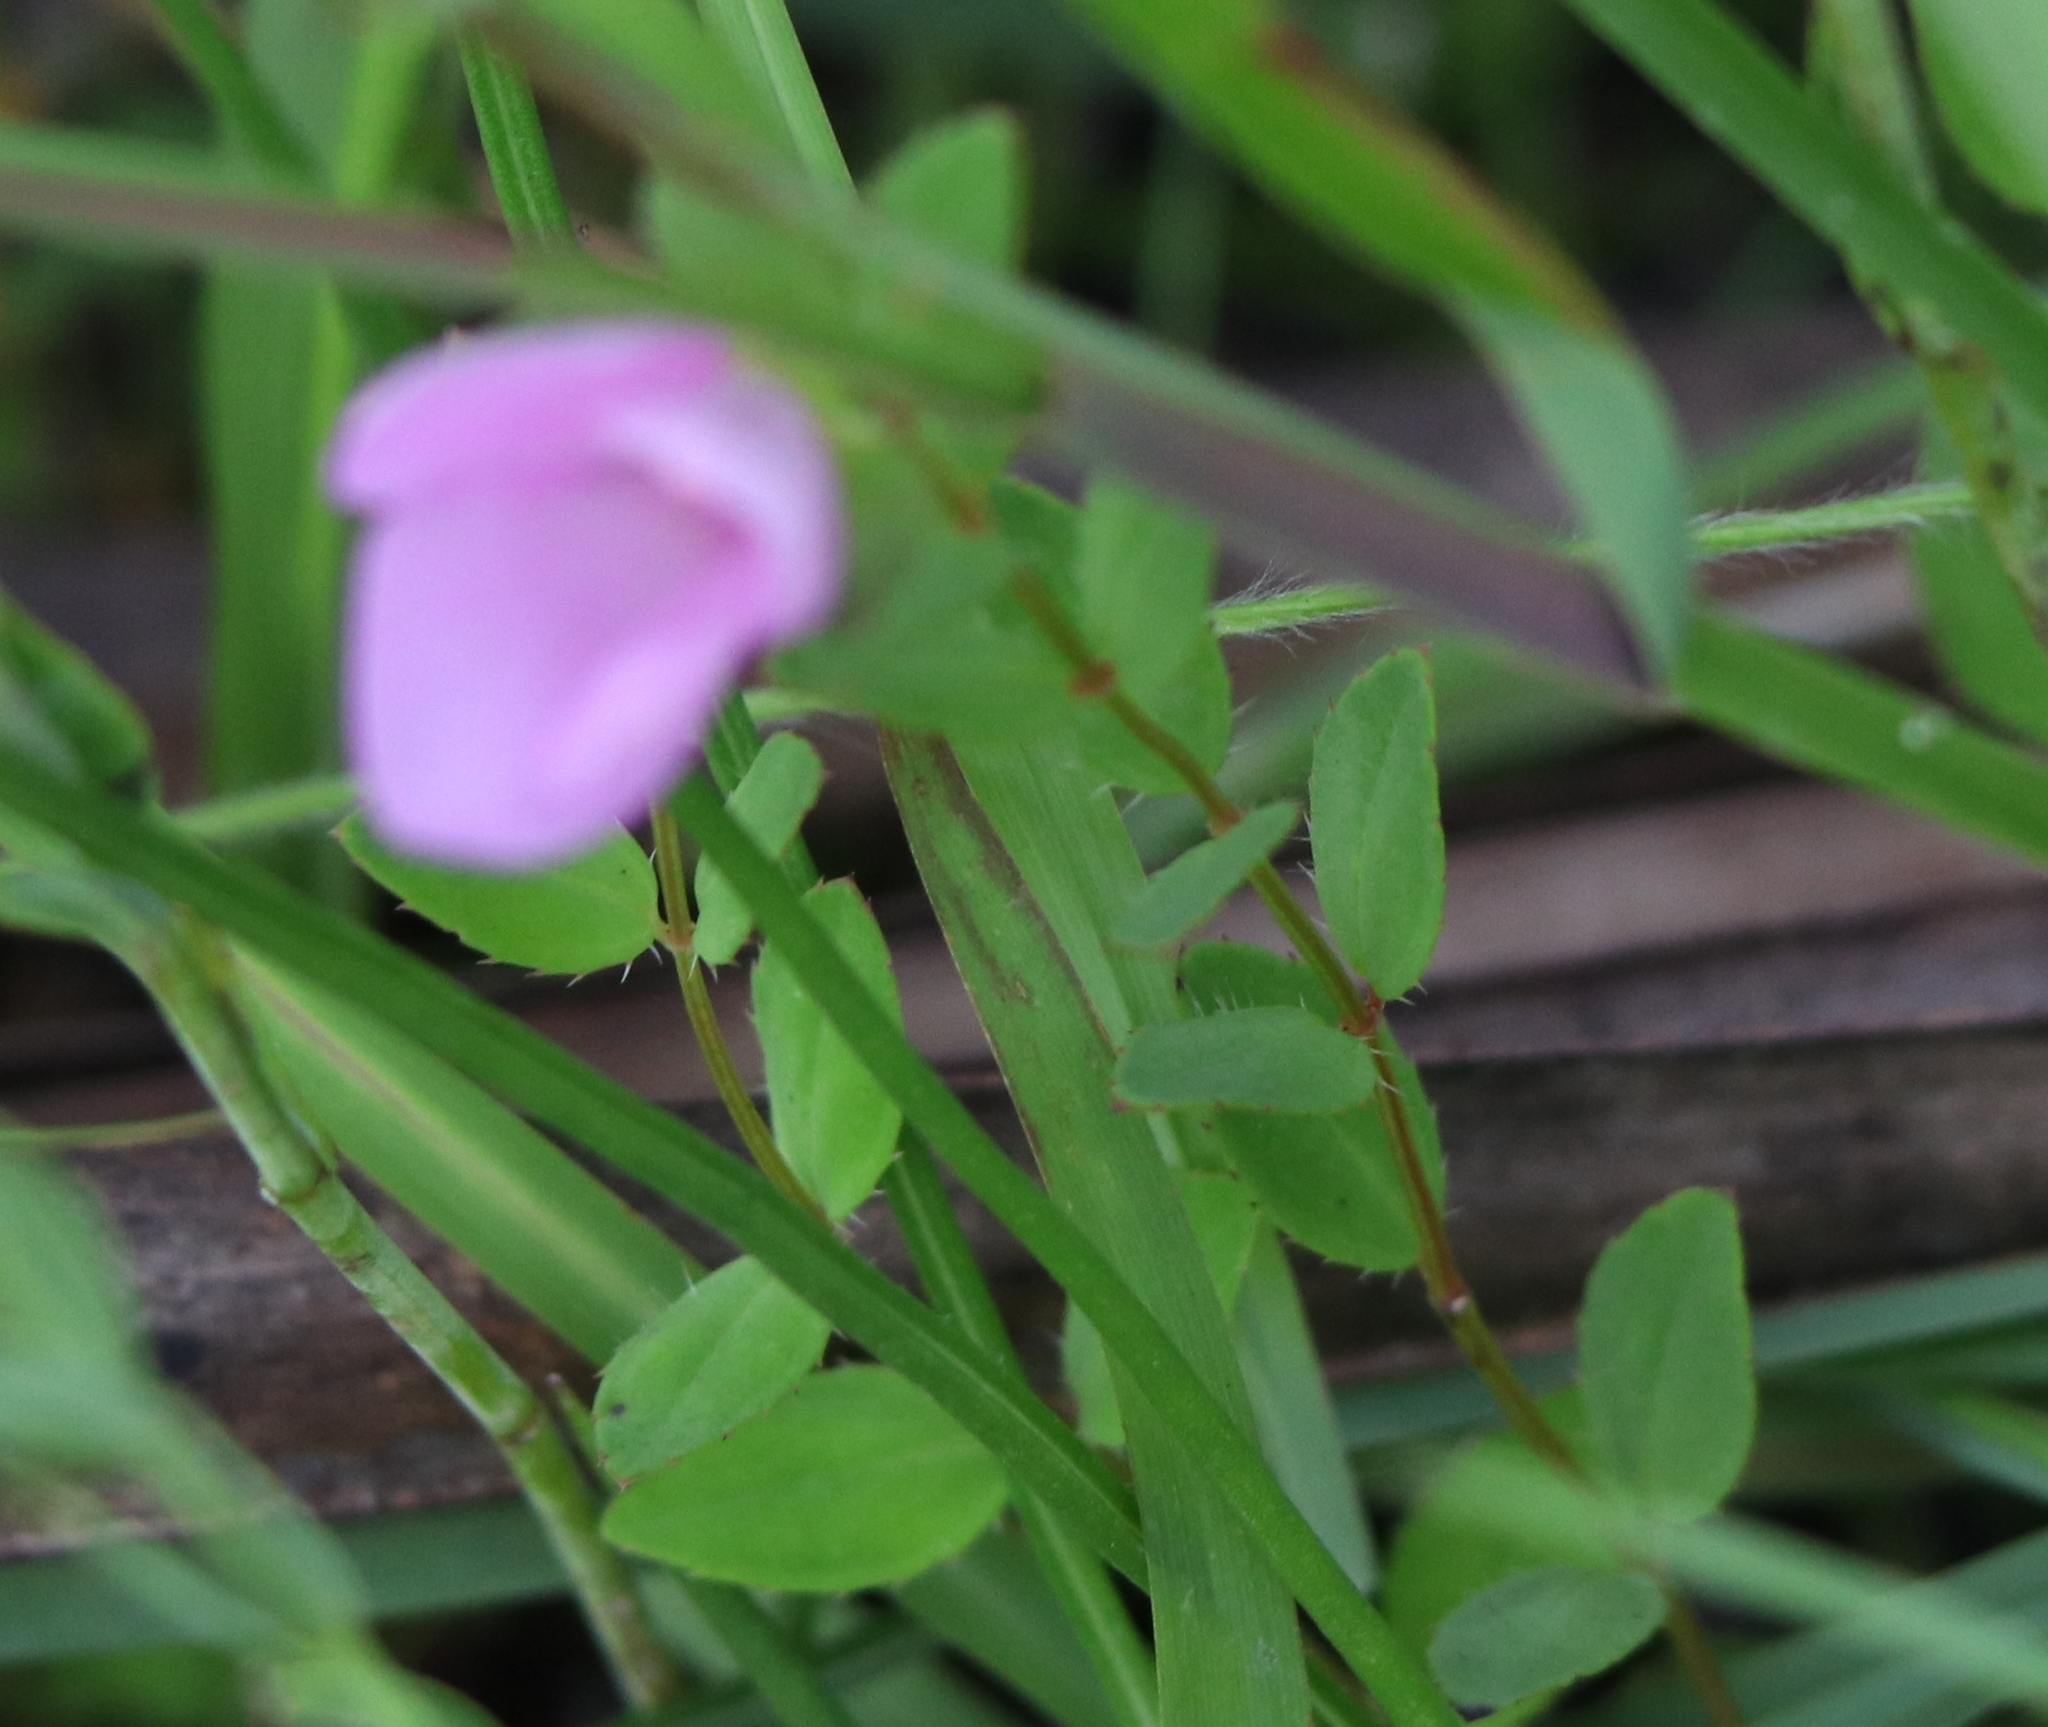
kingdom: Plantae
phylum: Tracheophyta
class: Magnoliopsida
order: Myrtales
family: Melastomataceae
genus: Rhexia
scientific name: Rhexia petiolata
